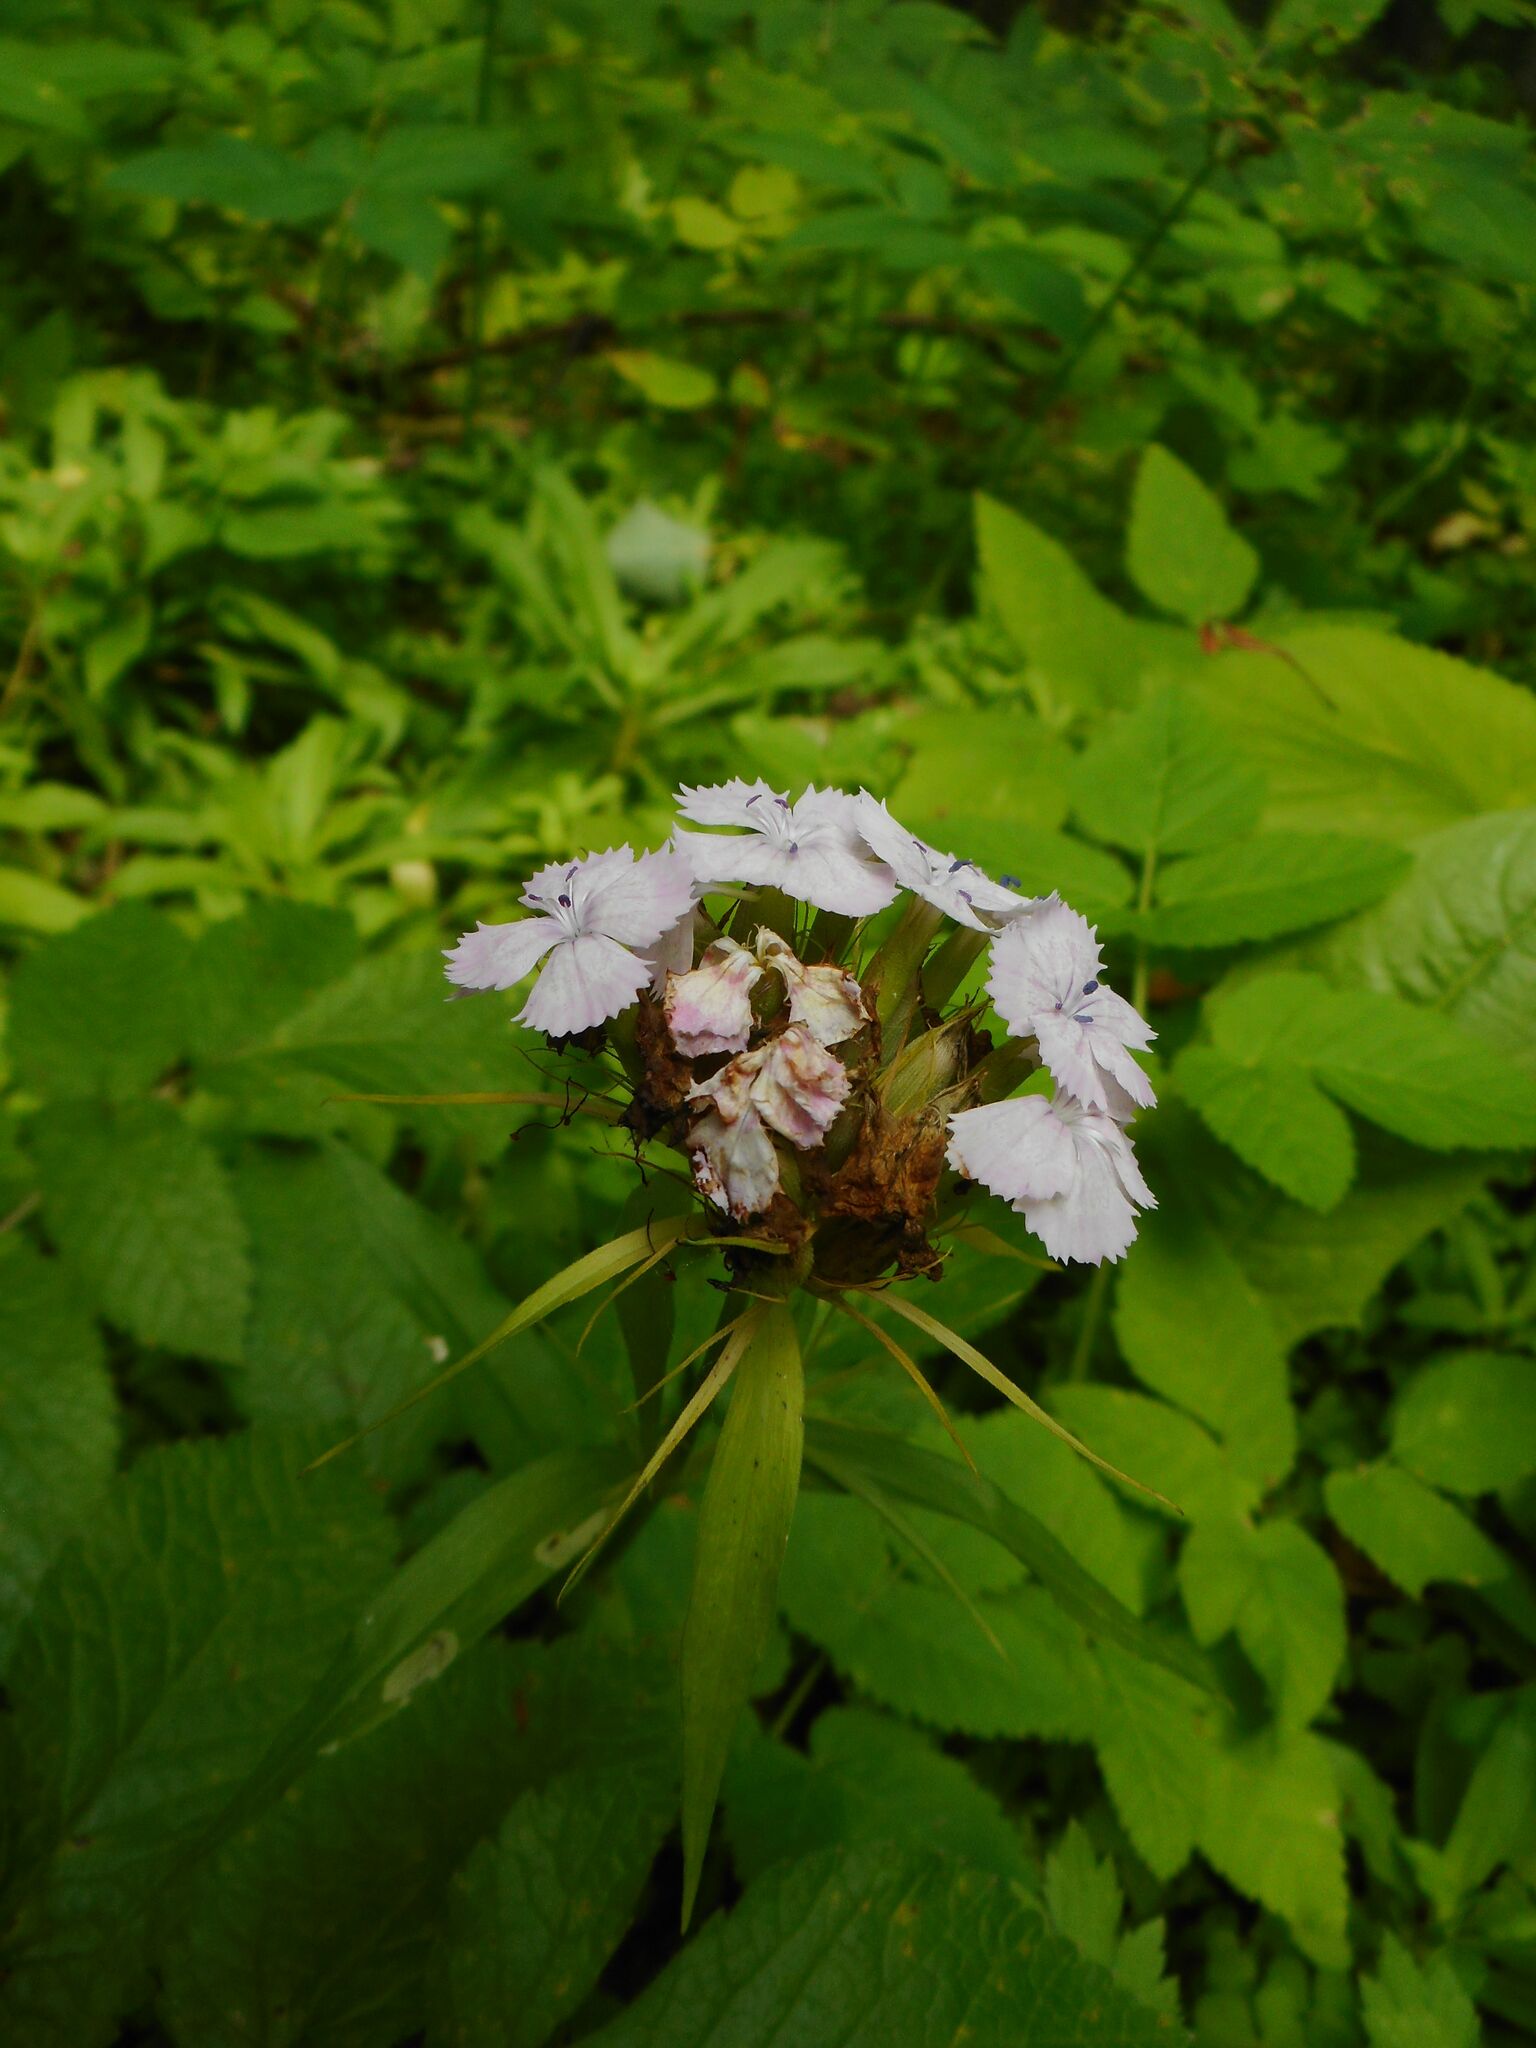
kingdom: Plantae
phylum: Tracheophyta
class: Magnoliopsida
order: Caryophyllales
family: Caryophyllaceae
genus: Dianthus
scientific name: Dianthus barbatus
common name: Sweet-william
